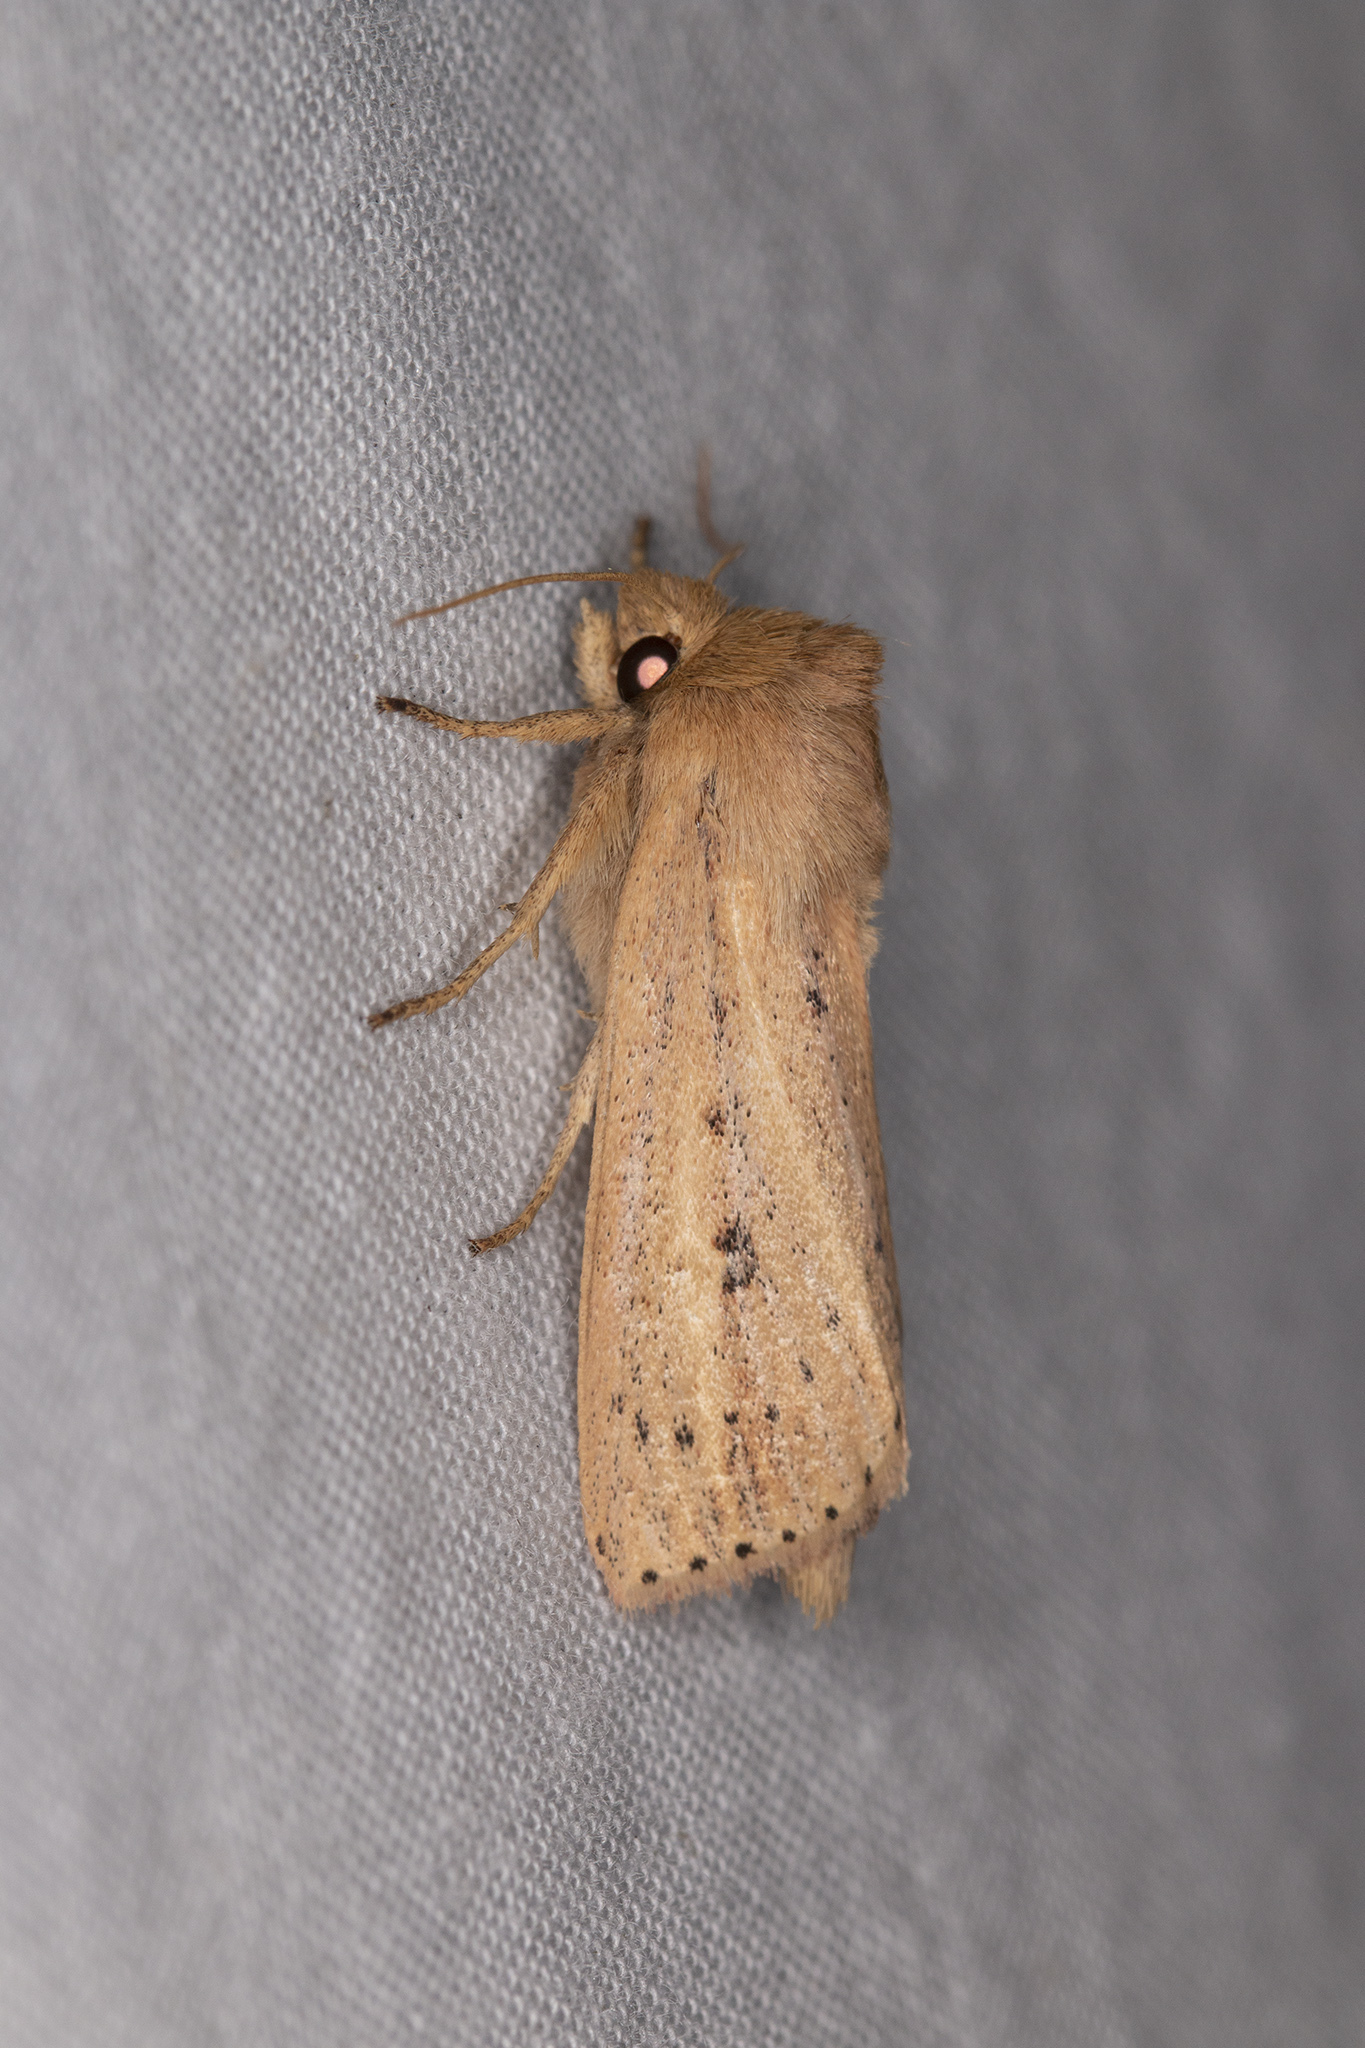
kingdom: Animalia
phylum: Arthropoda
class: Insecta
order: Lepidoptera
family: Noctuidae
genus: Globia
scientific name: Globia sparganii
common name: Webb's wainscot
